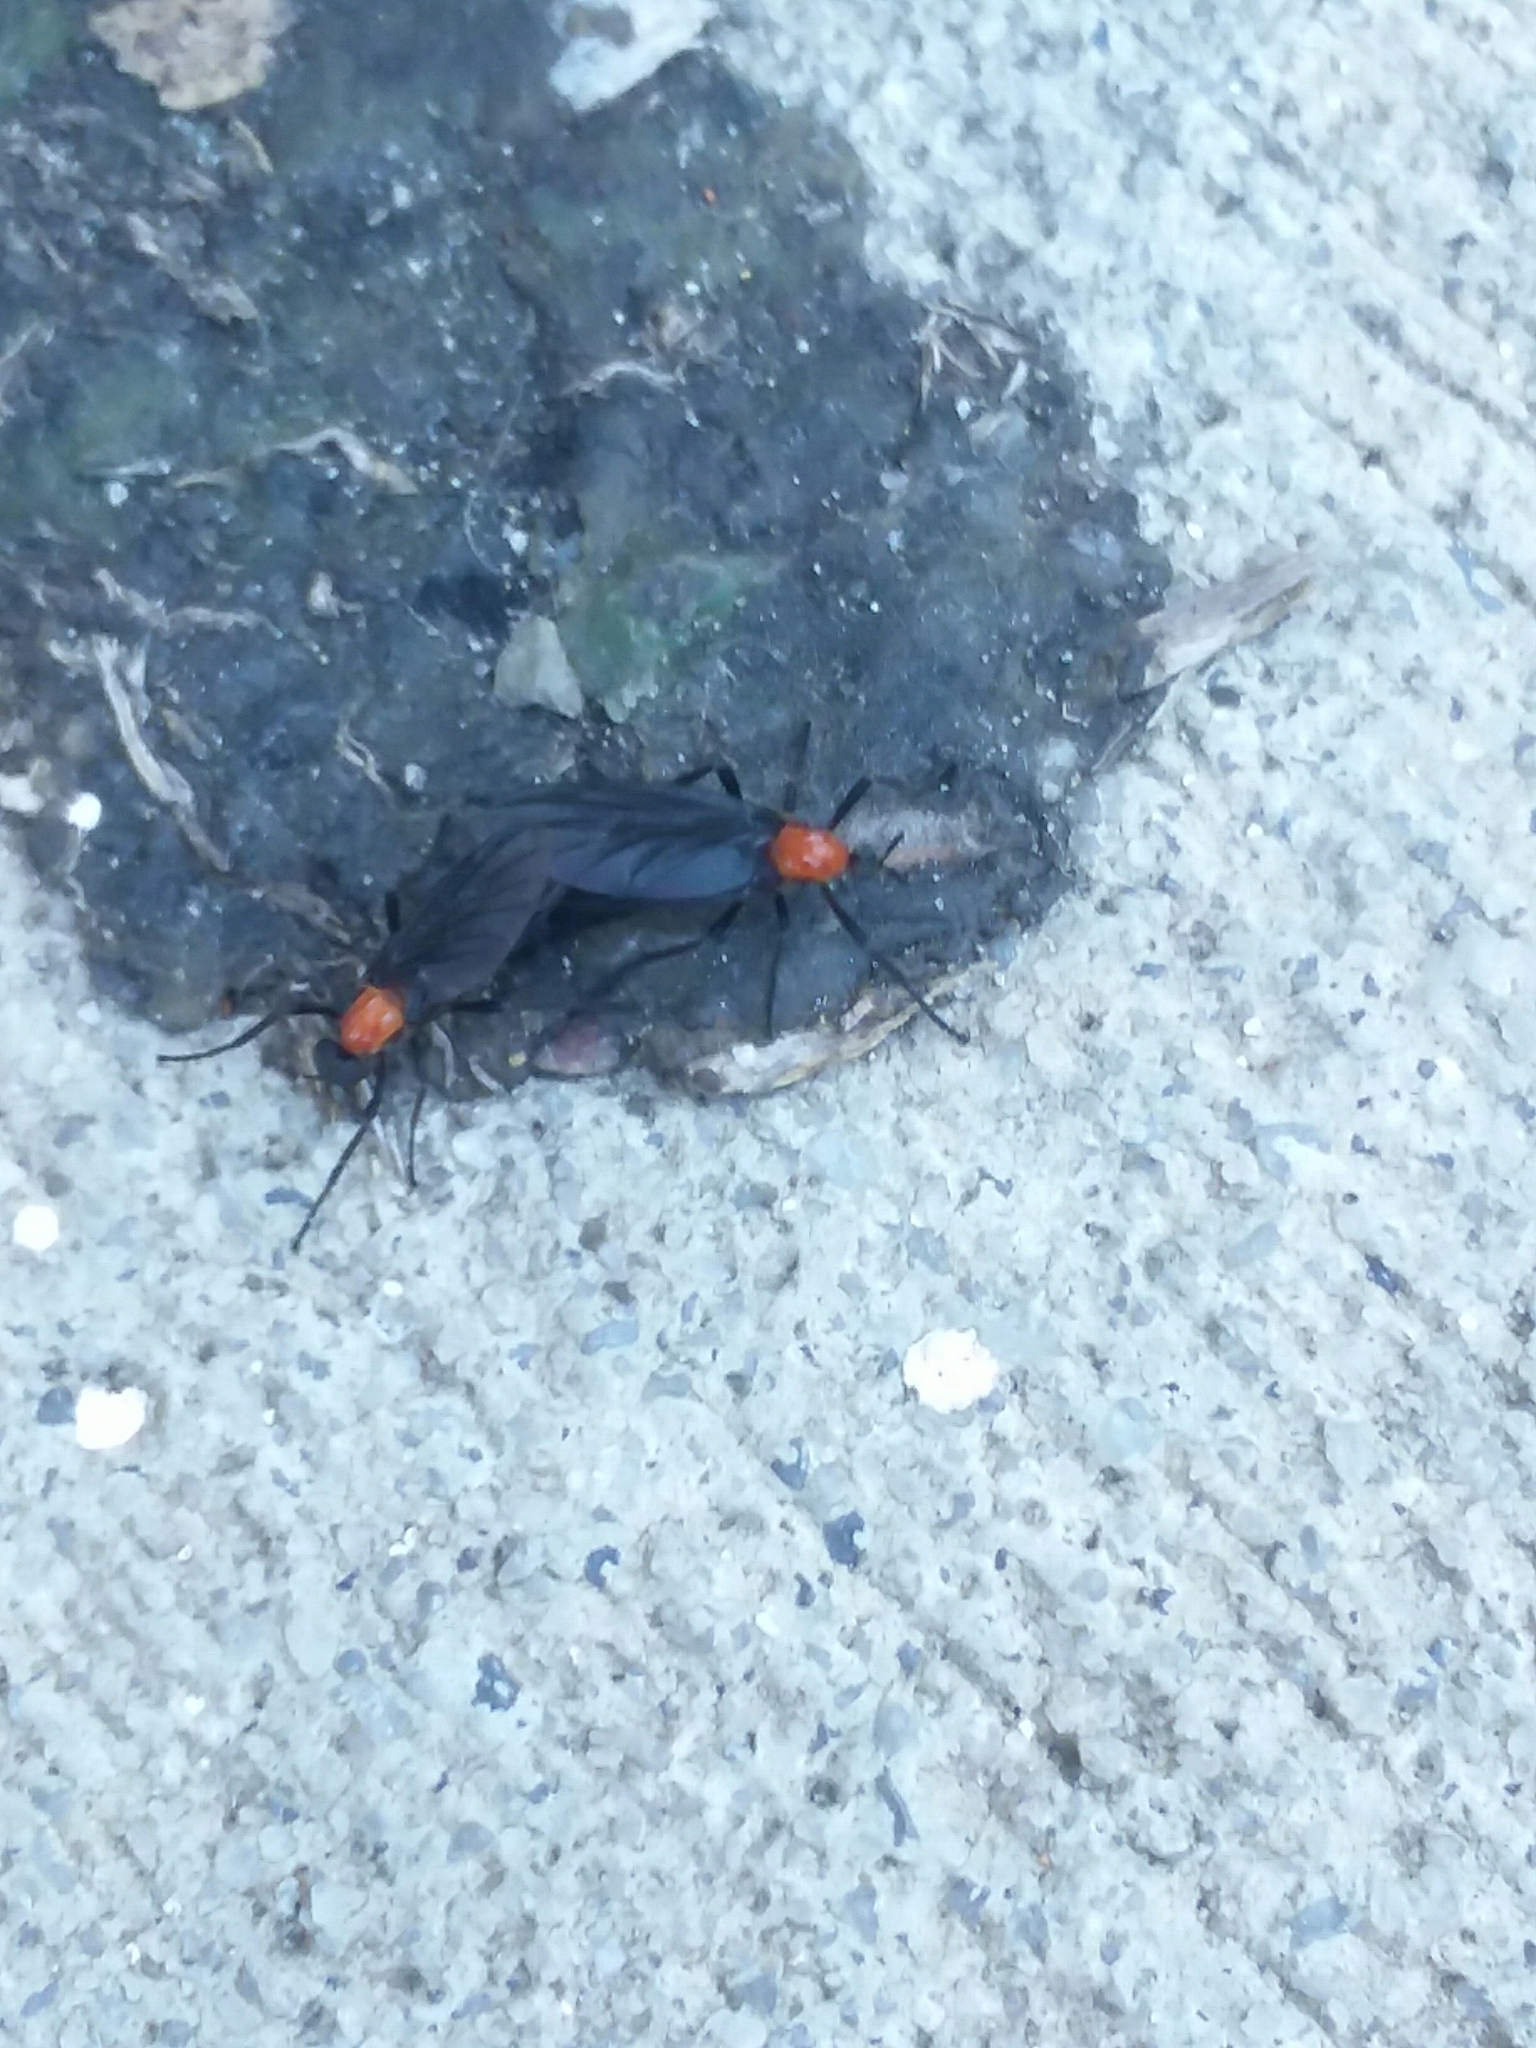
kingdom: Animalia
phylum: Arthropoda
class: Insecta
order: Diptera
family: Bibionidae
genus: Plecia
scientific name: Plecia nearctica
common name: March fly
